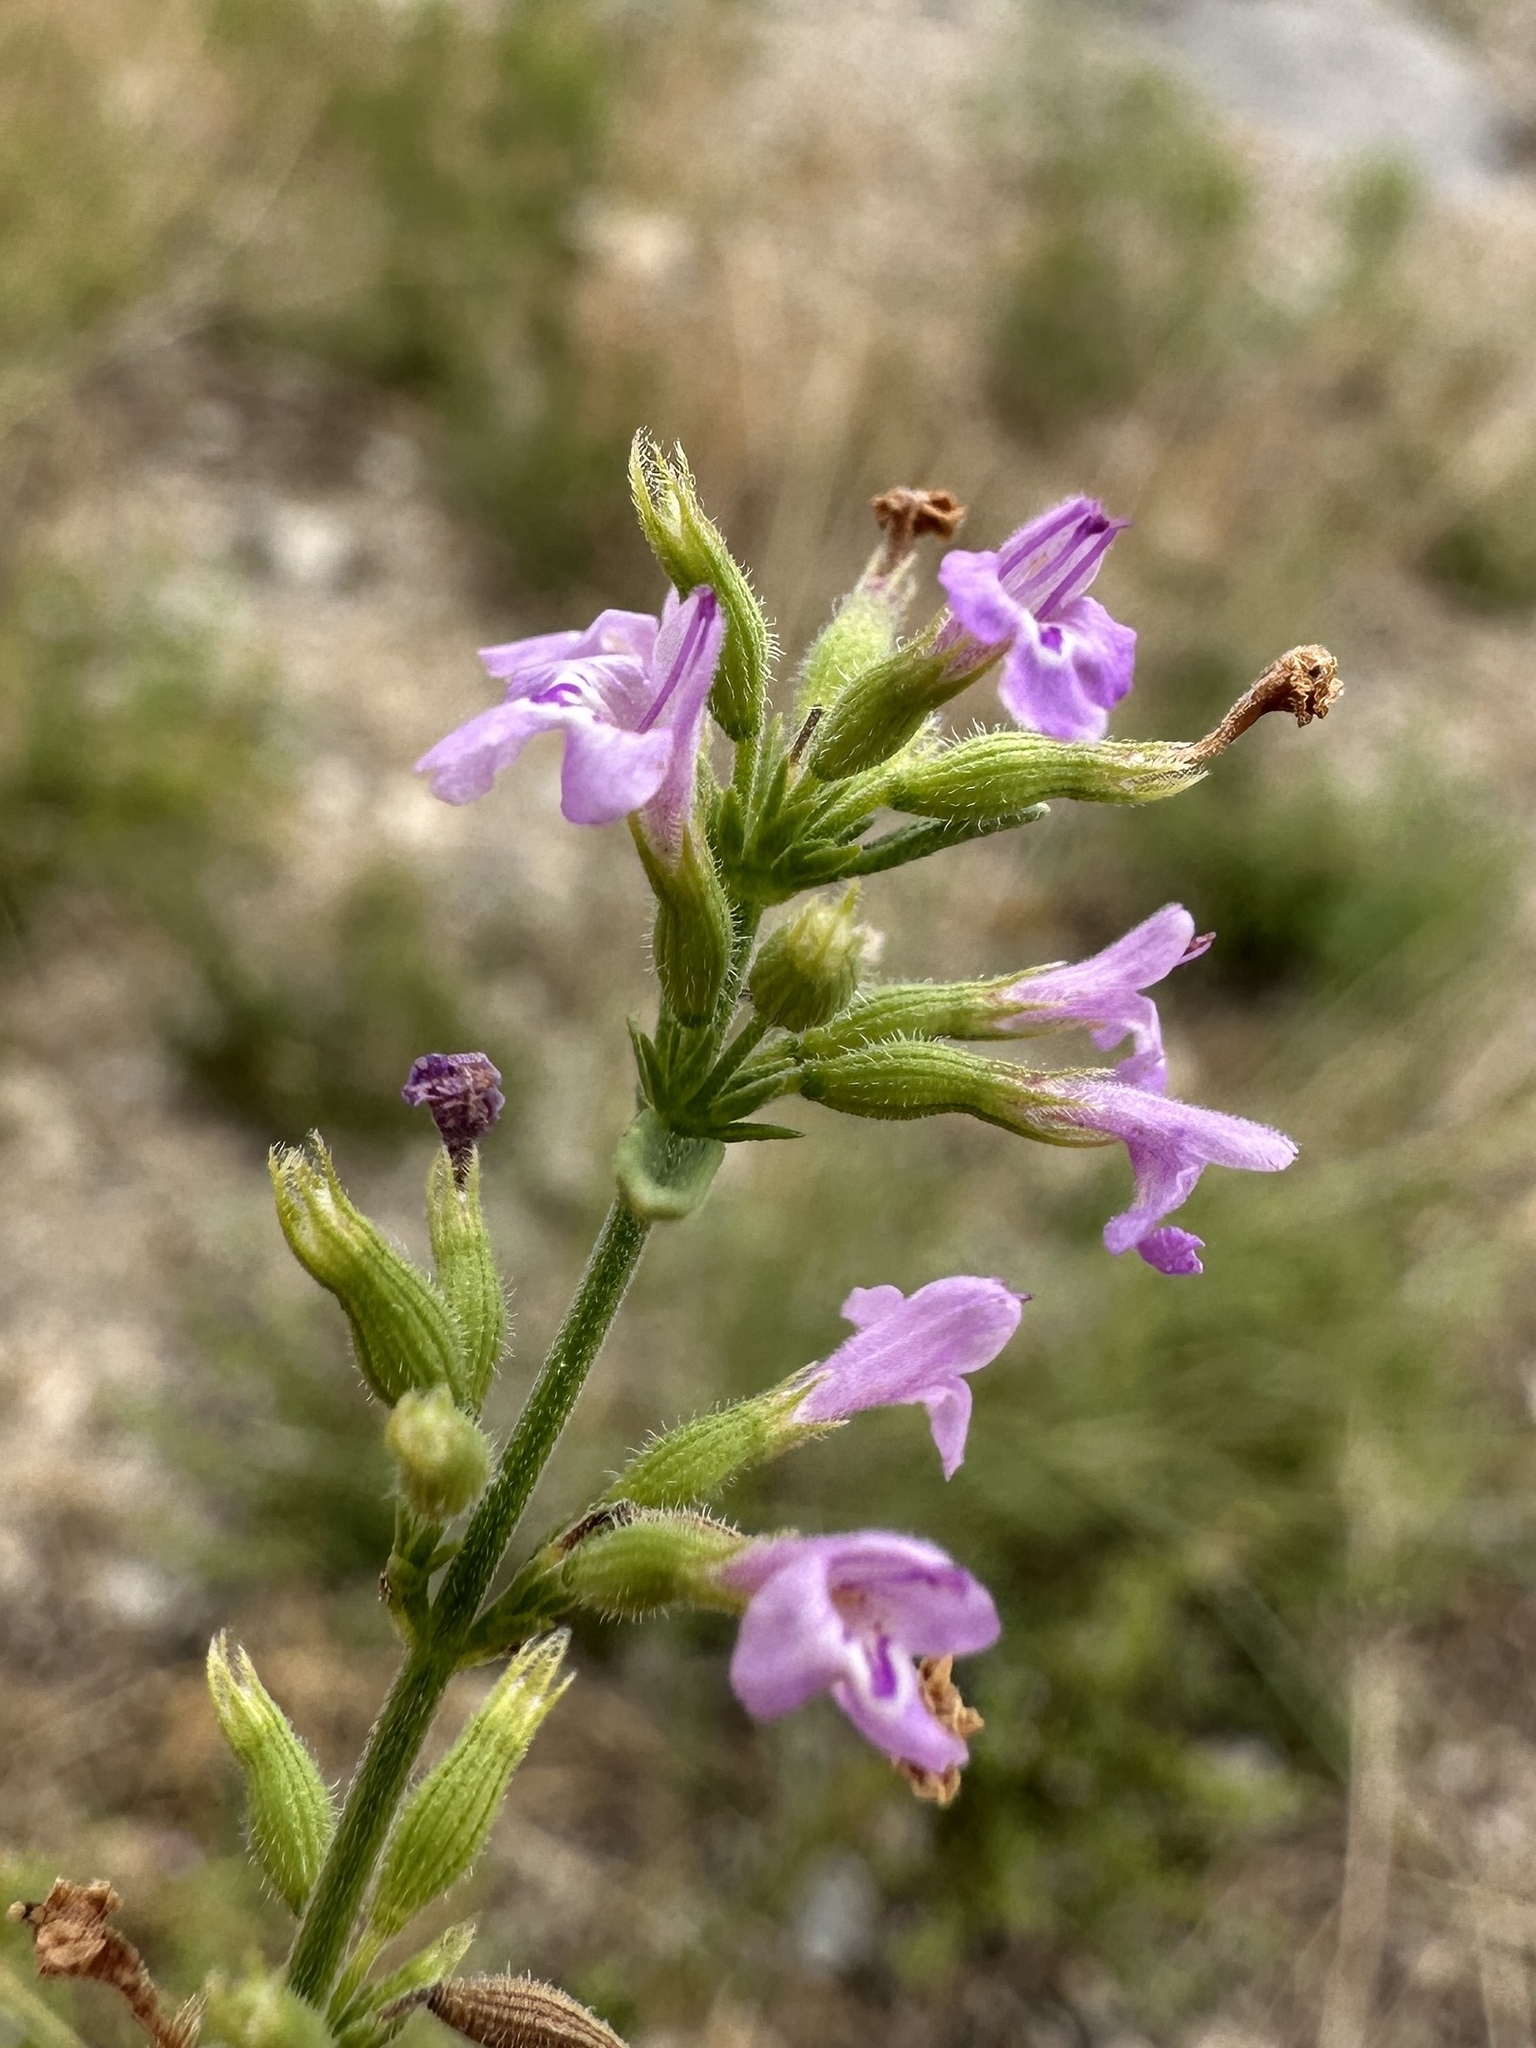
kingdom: Plantae
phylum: Tracheophyta
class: Magnoliopsida
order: Lamiales
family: Lamiaceae
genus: Hedeoma
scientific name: Hedeoma drummondii
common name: New mexico pennyroyal
